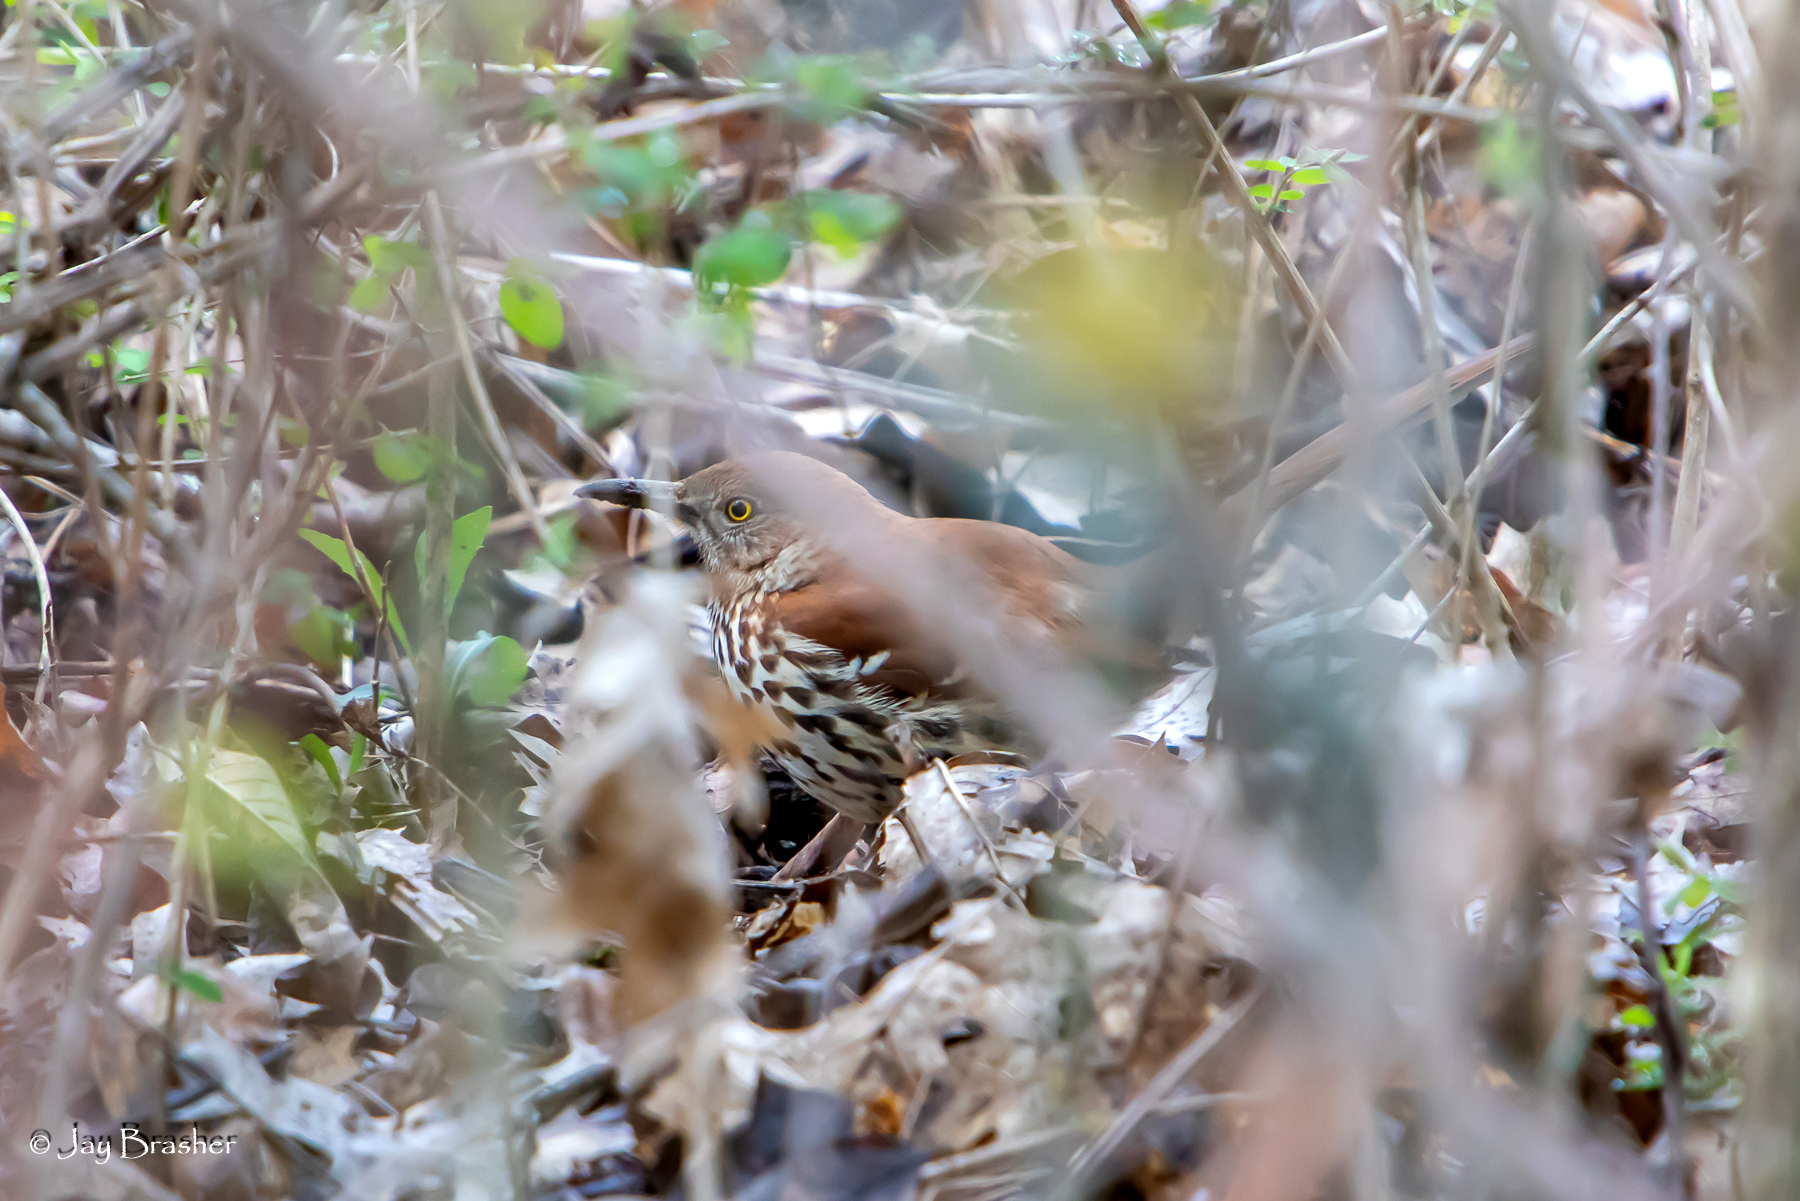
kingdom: Animalia
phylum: Chordata
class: Aves
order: Passeriformes
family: Mimidae
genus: Toxostoma
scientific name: Toxostoma rufum
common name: Brown thrasher
